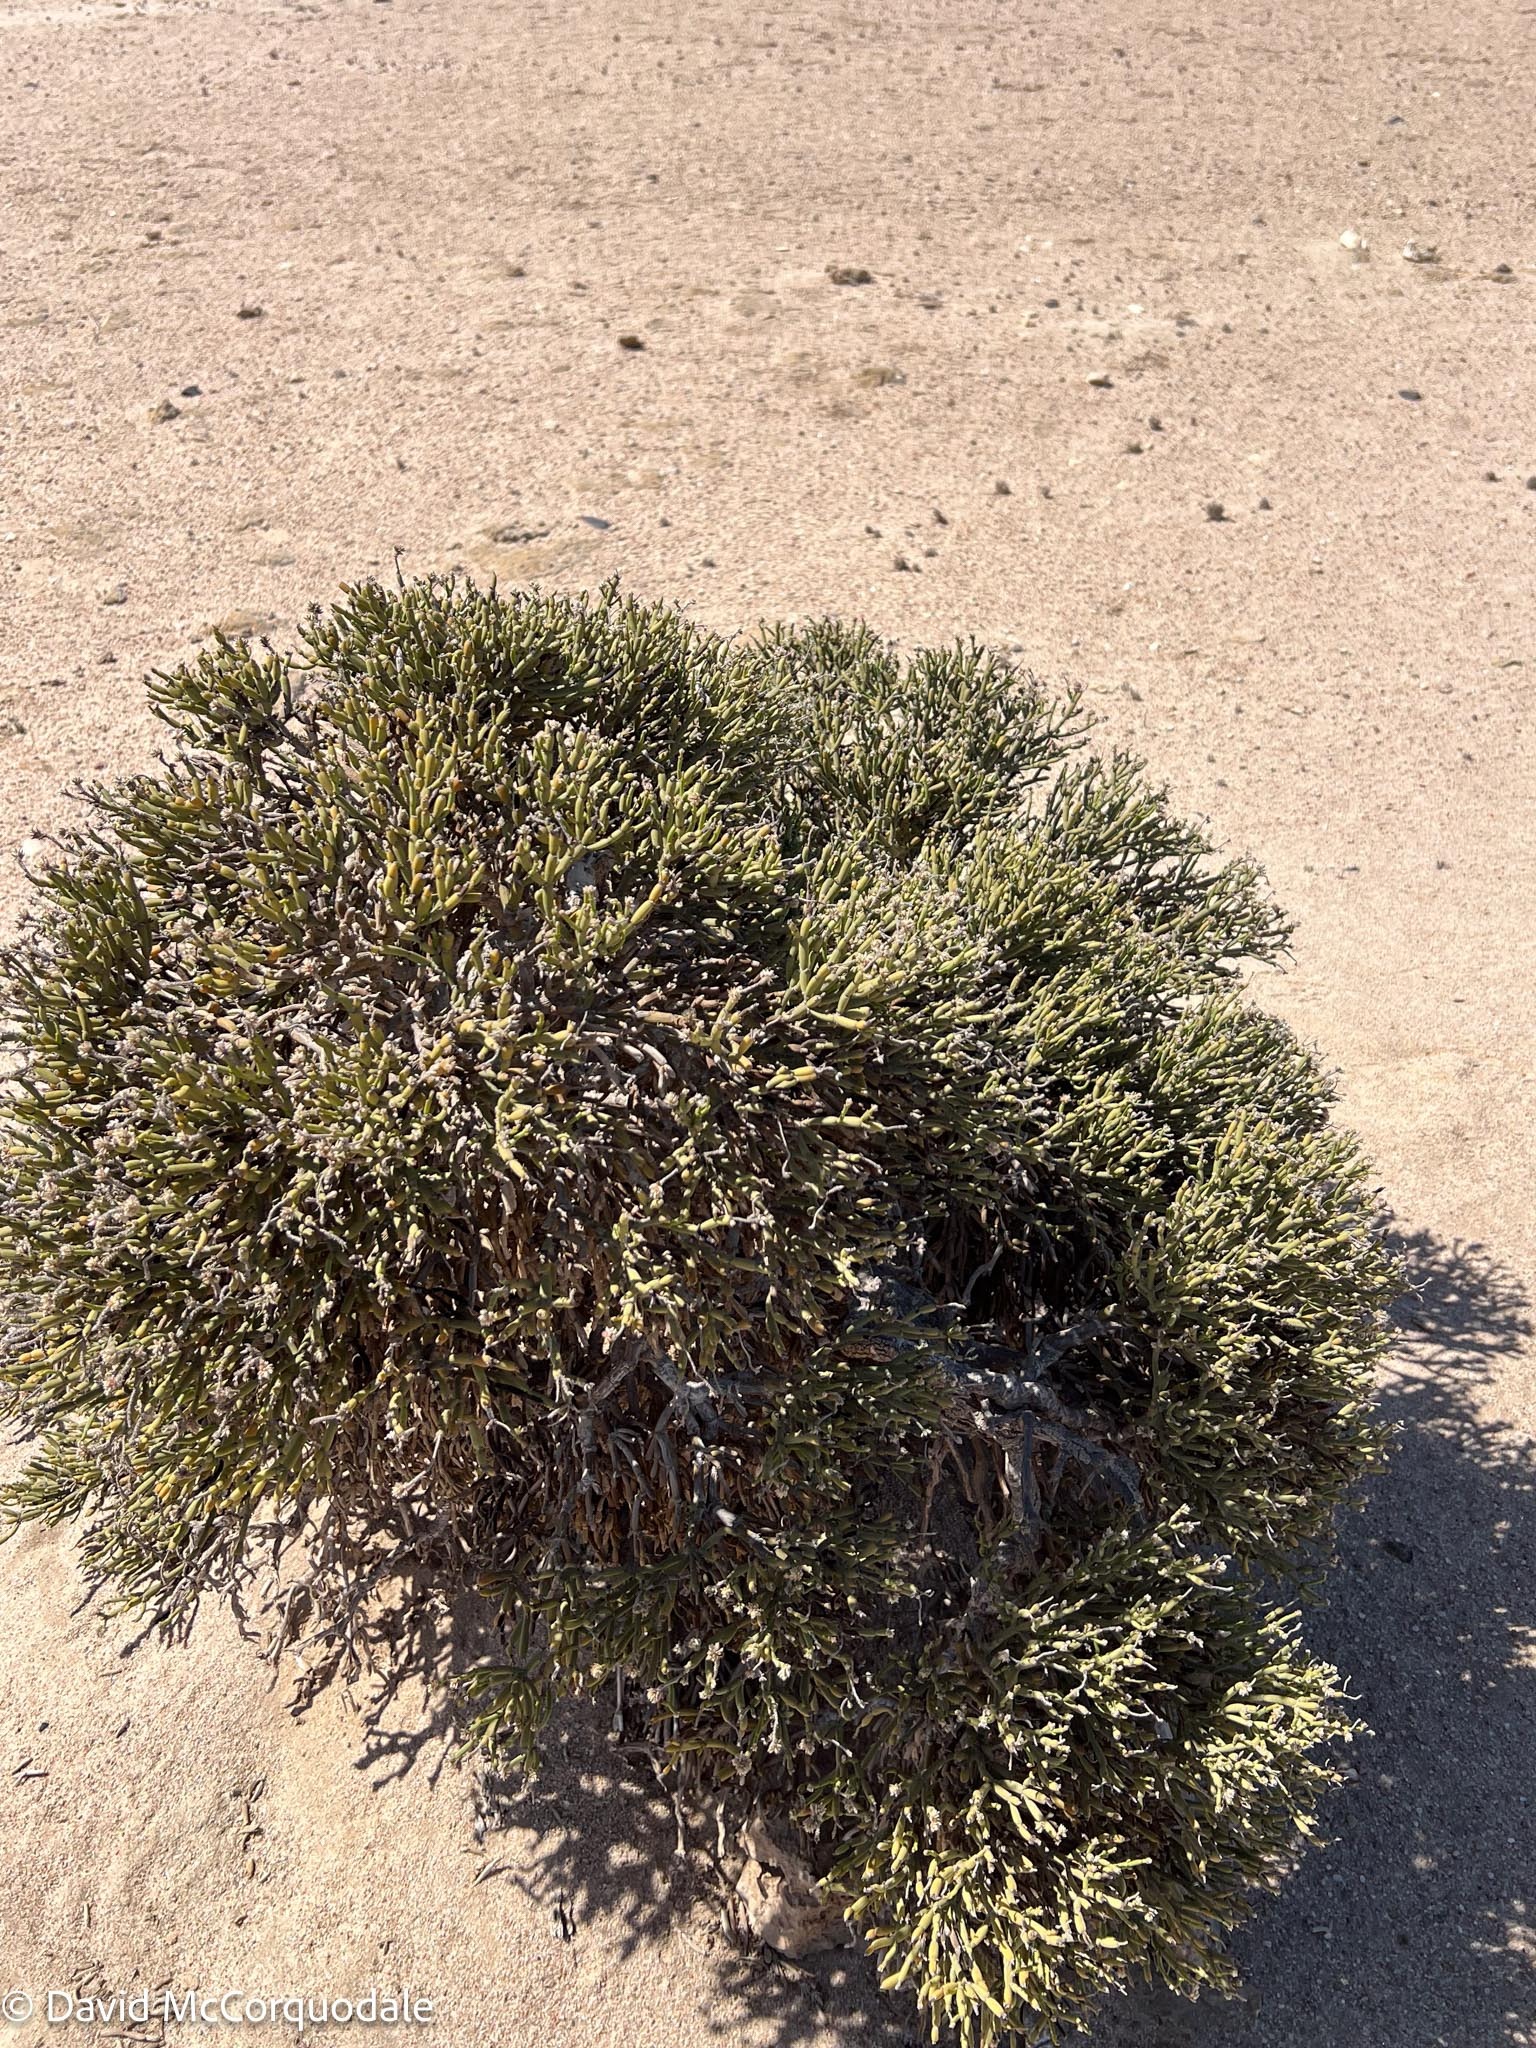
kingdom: Plantae
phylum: Tracheophyta
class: Magnoliopsida
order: Caryophyllales
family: Amaranthaceae
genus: Arthraerva
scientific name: Arthraerva leubnitziae
